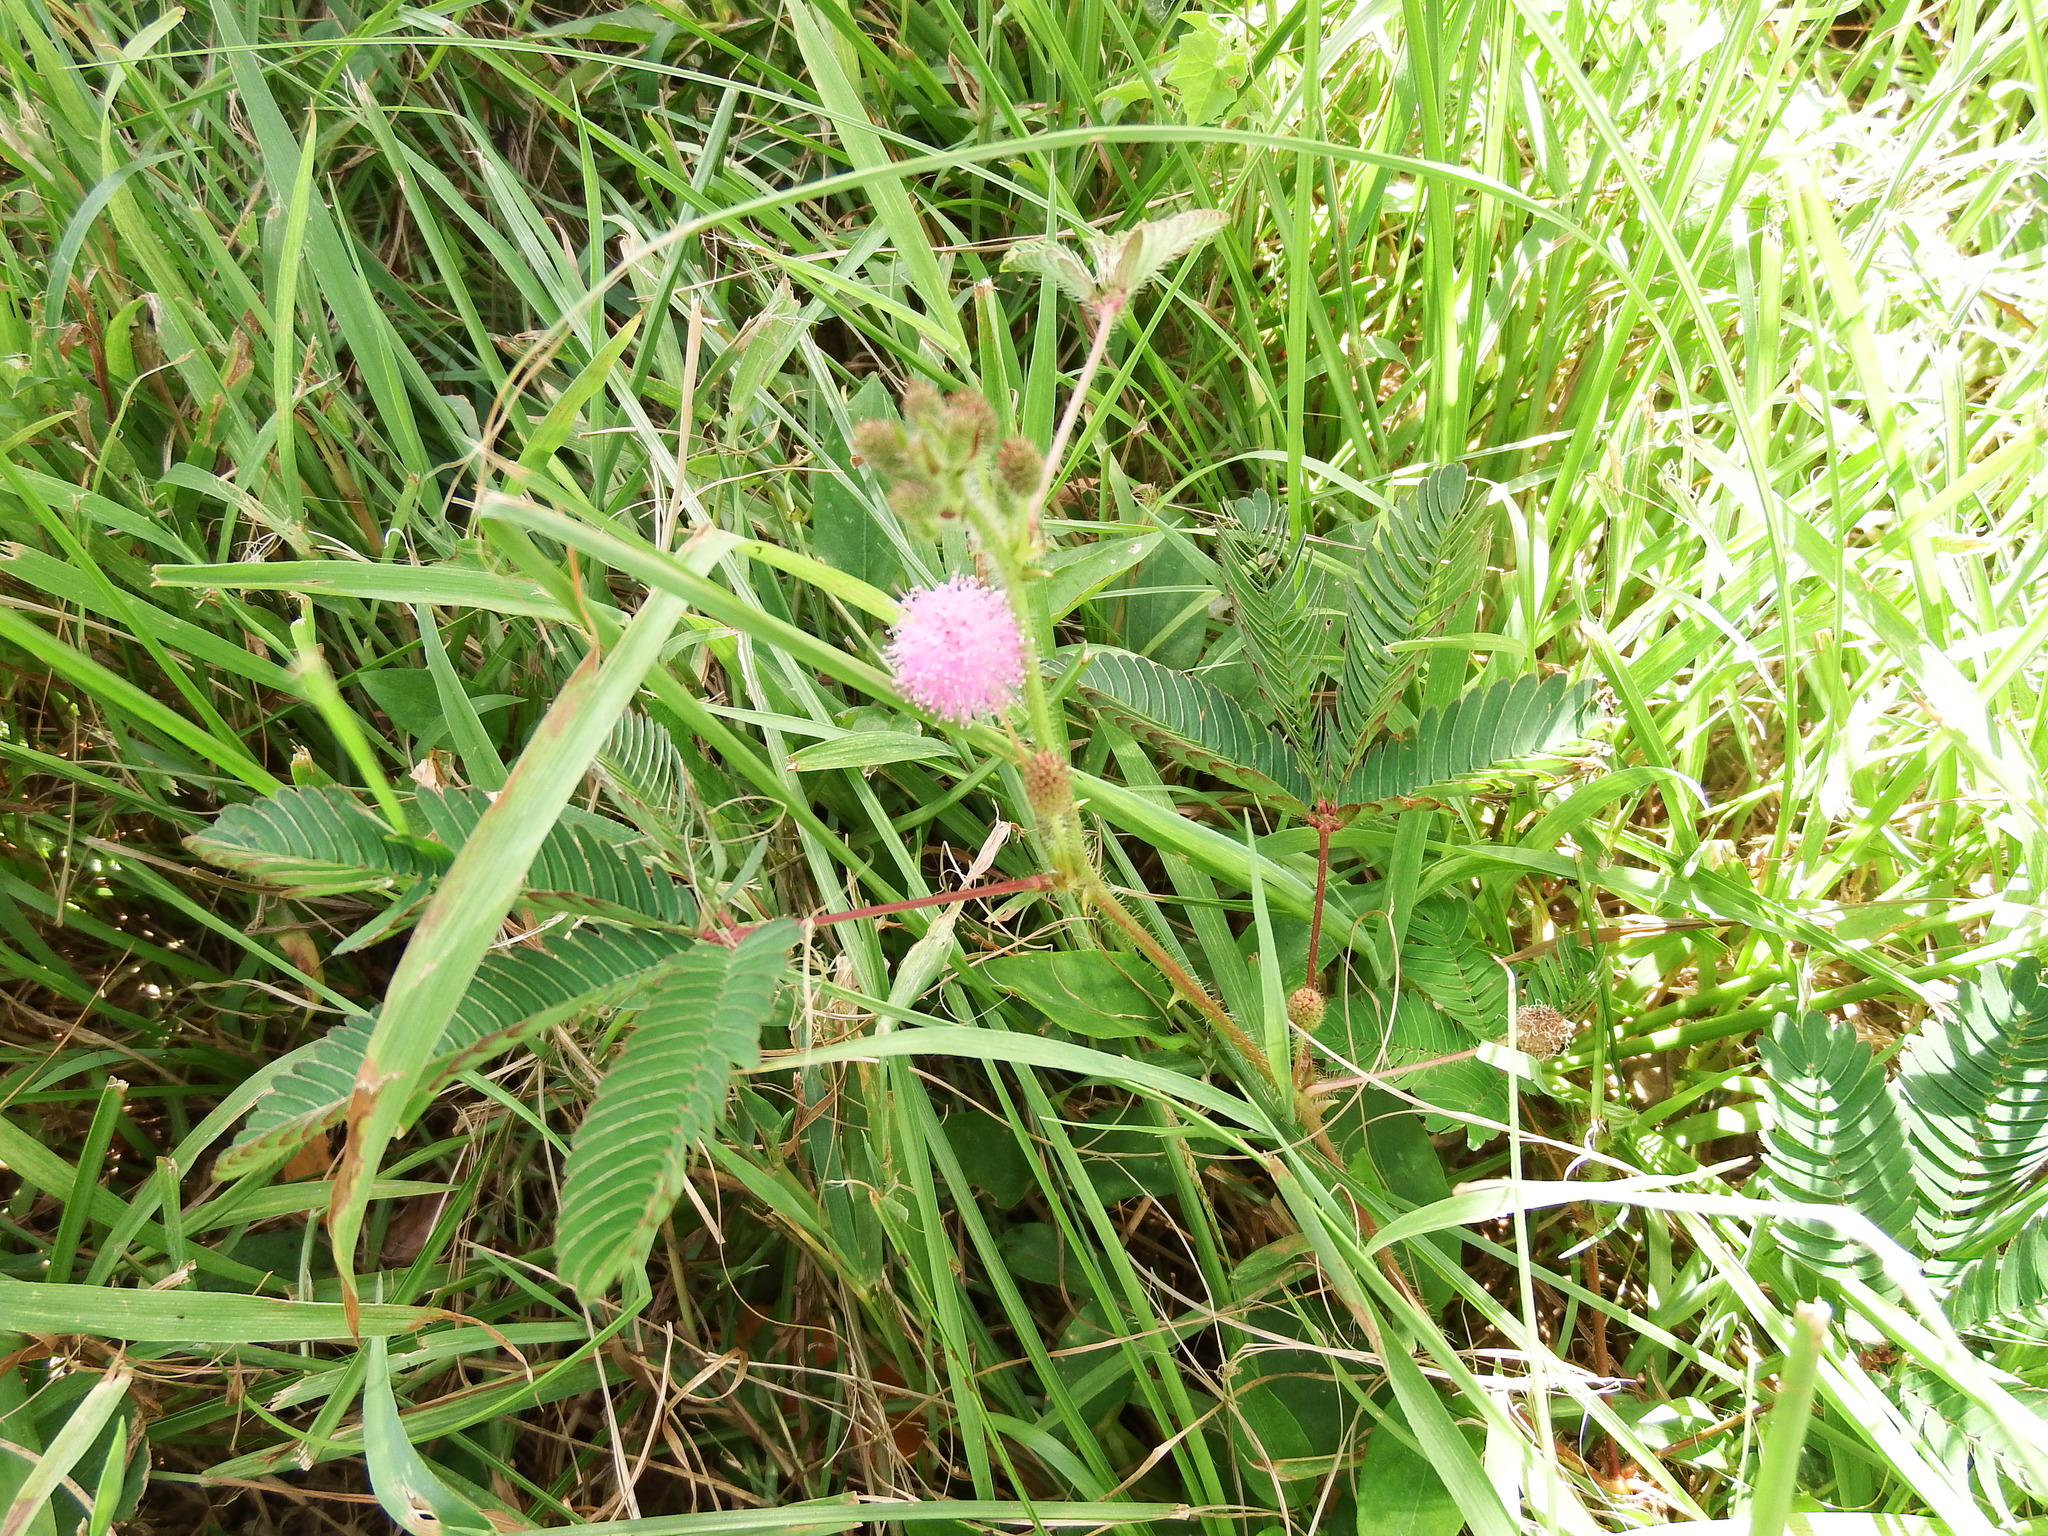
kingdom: Plantae
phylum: Tracheophyta
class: Magnoliopsida
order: Fabales
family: Fabaceae
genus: Mimosa
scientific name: Mimosa pudica
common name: Sensitive plant
